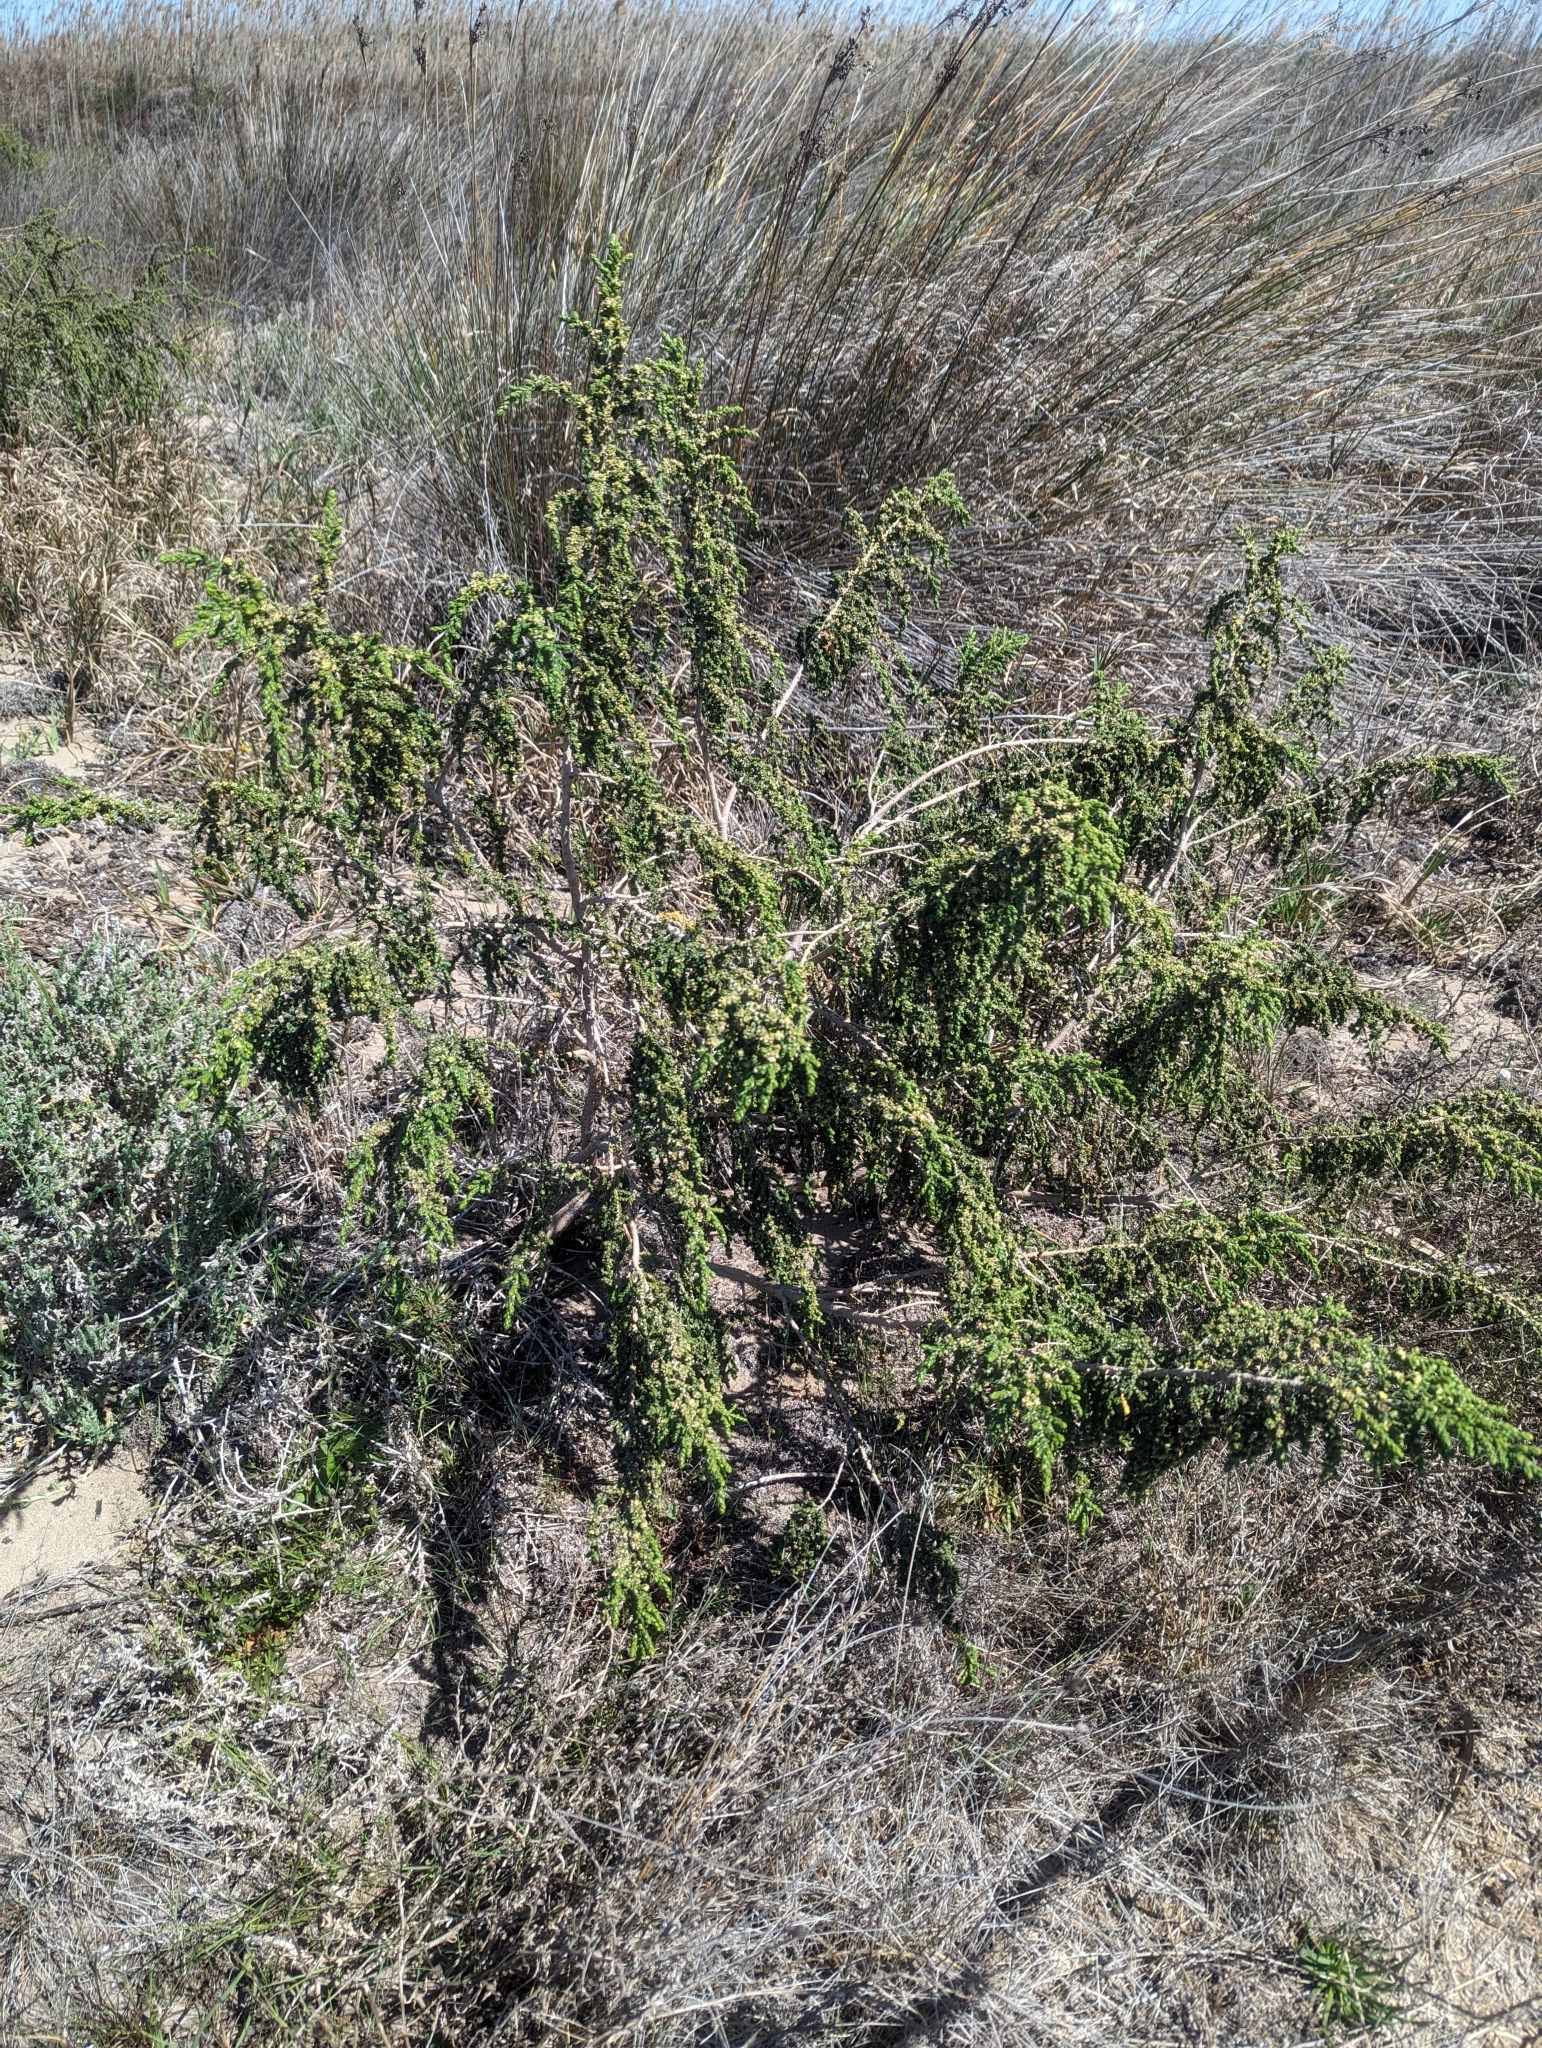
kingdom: Plantae
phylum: Tracheophyta
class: Magnoliopsida
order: Malvales
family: Thymelaeaceae
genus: Thymelaea
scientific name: Thymelaea hirsuta
